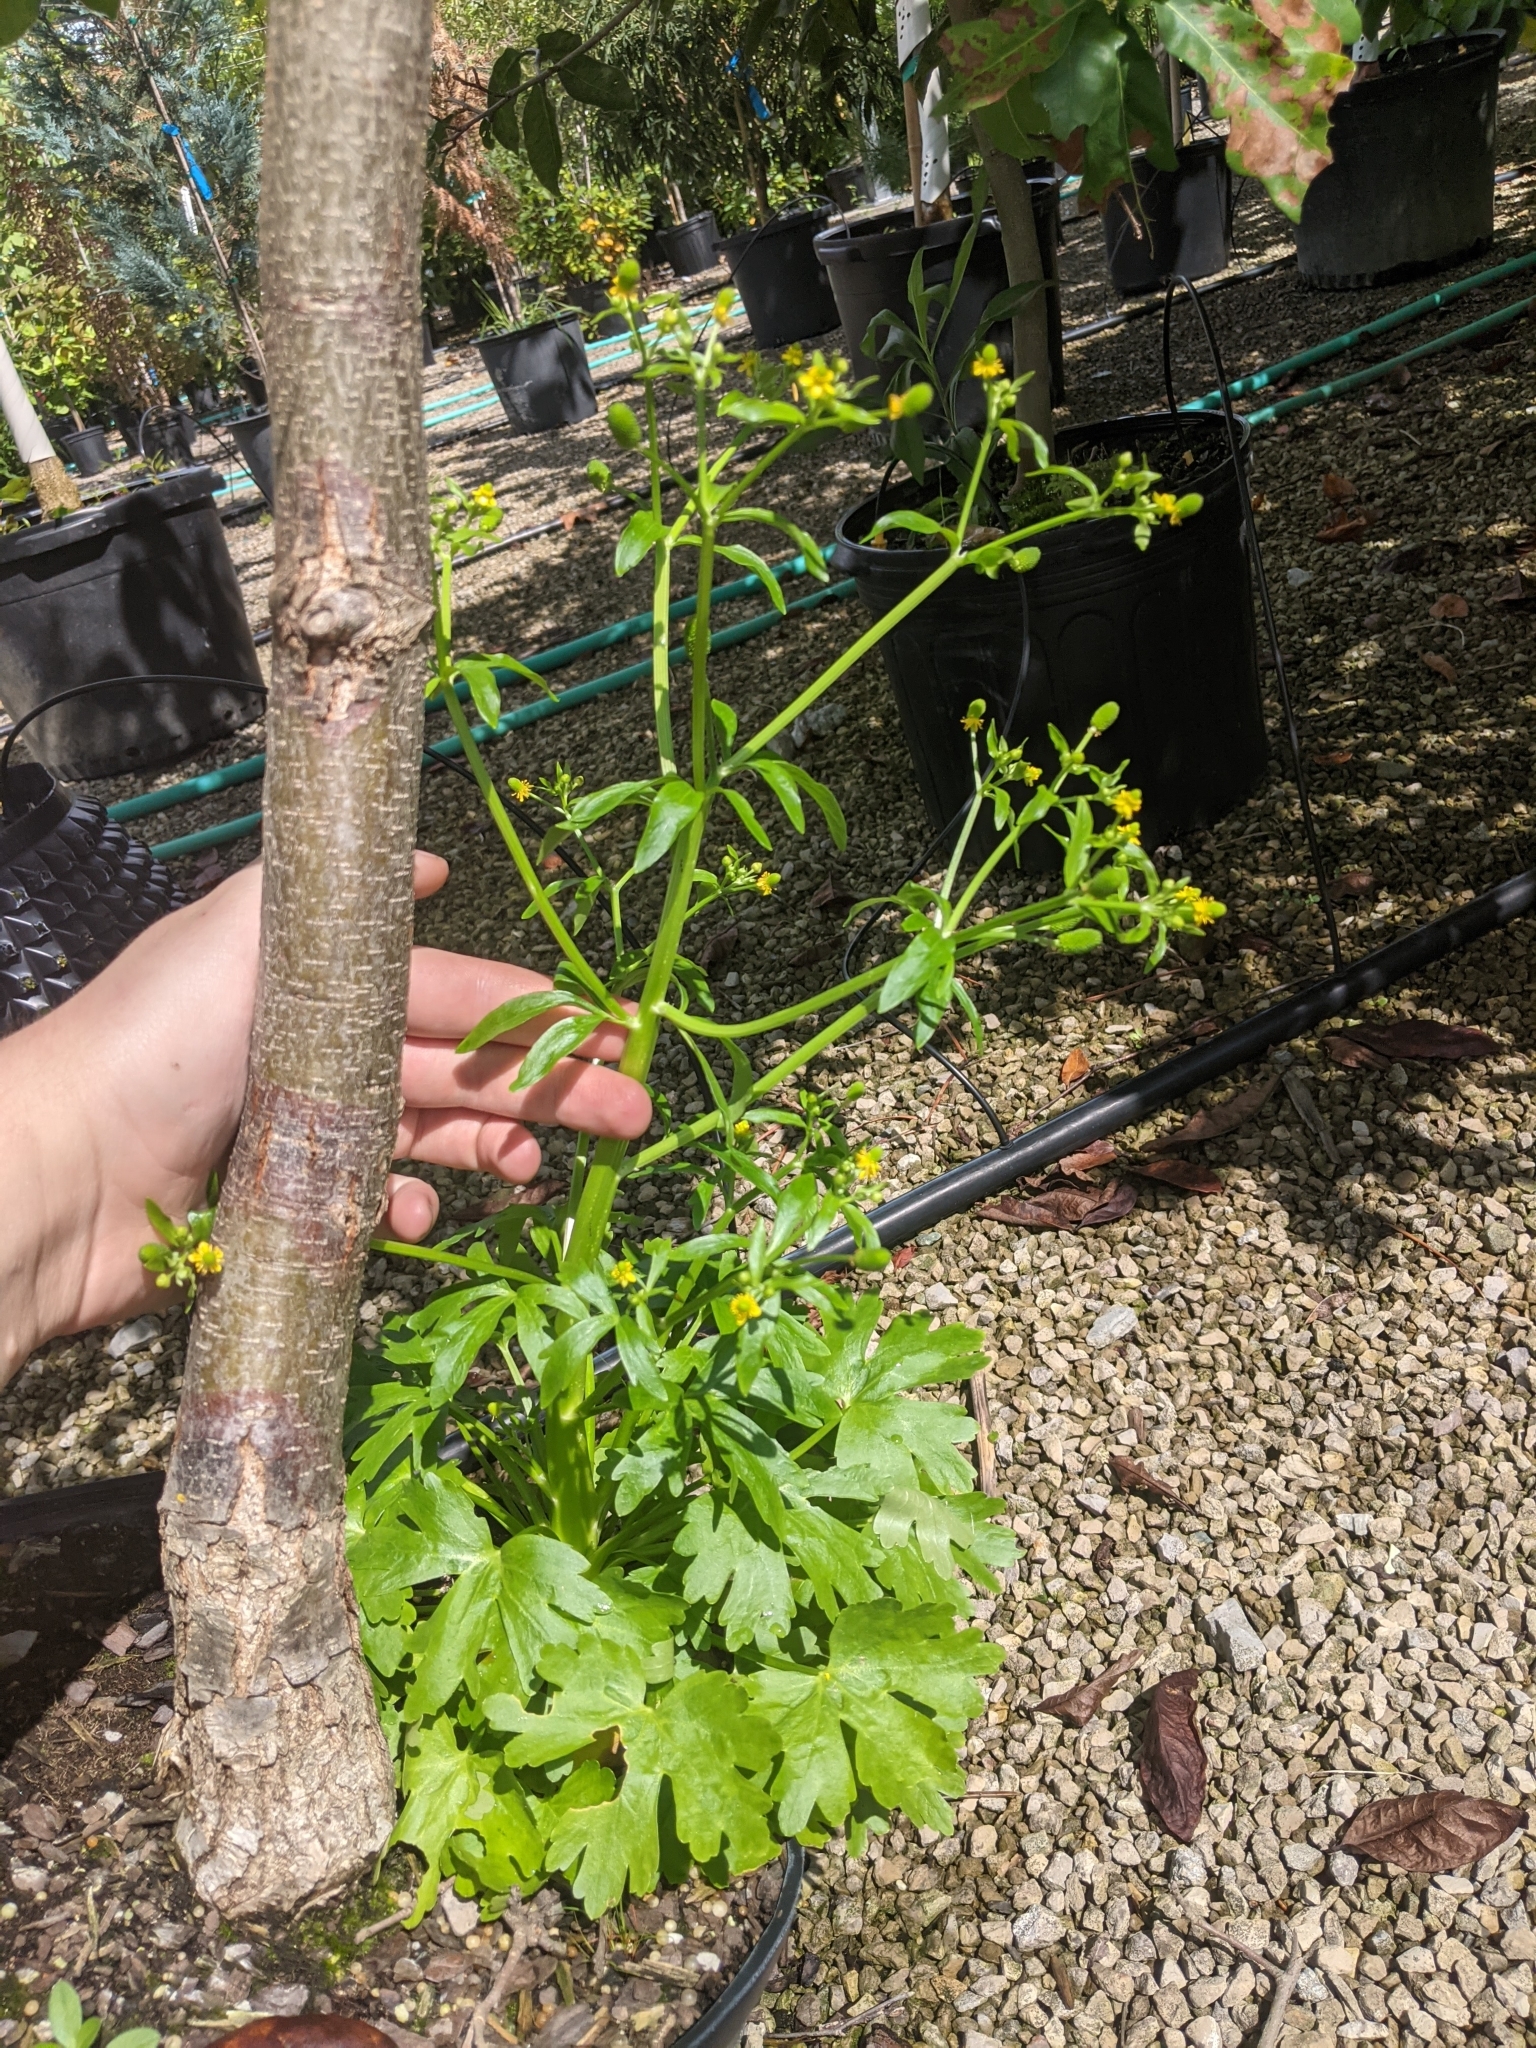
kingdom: Plantae
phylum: Tracheophyta
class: Magnoliopsida
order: Ranunculales
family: Ranunculaceae
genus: Ranunculus
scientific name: Ranunculus sceleratus
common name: Celery-leaved buttercup
